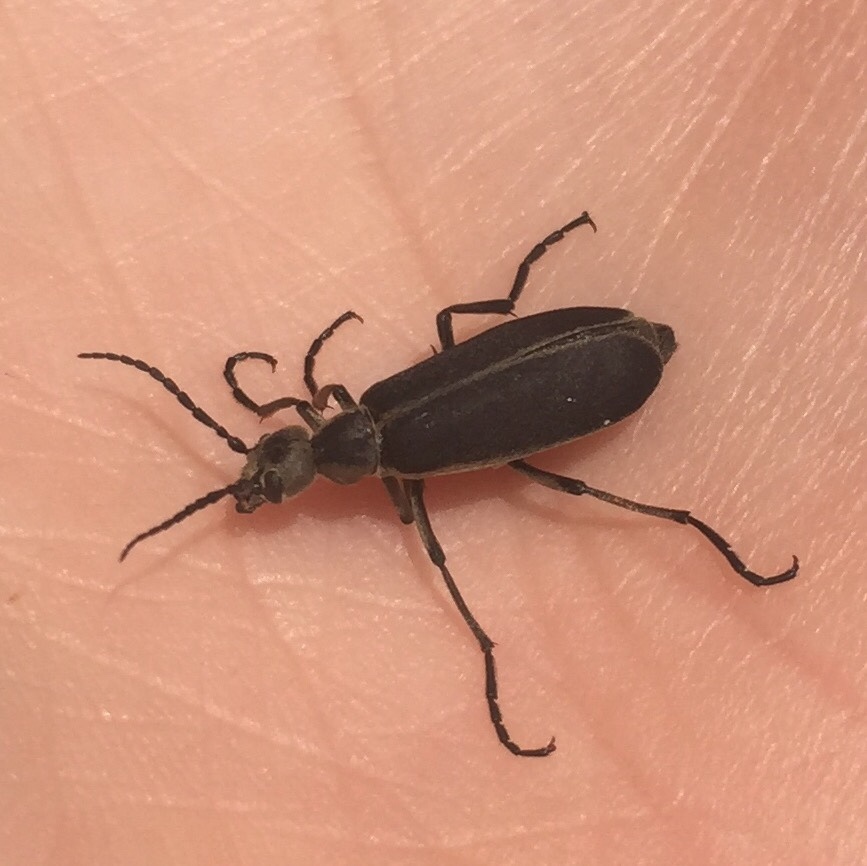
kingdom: Animalia
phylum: Arthropoda
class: Insecta
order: Coleoptera
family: Meloidae
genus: Epicauta
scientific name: Epicauta cinerea
